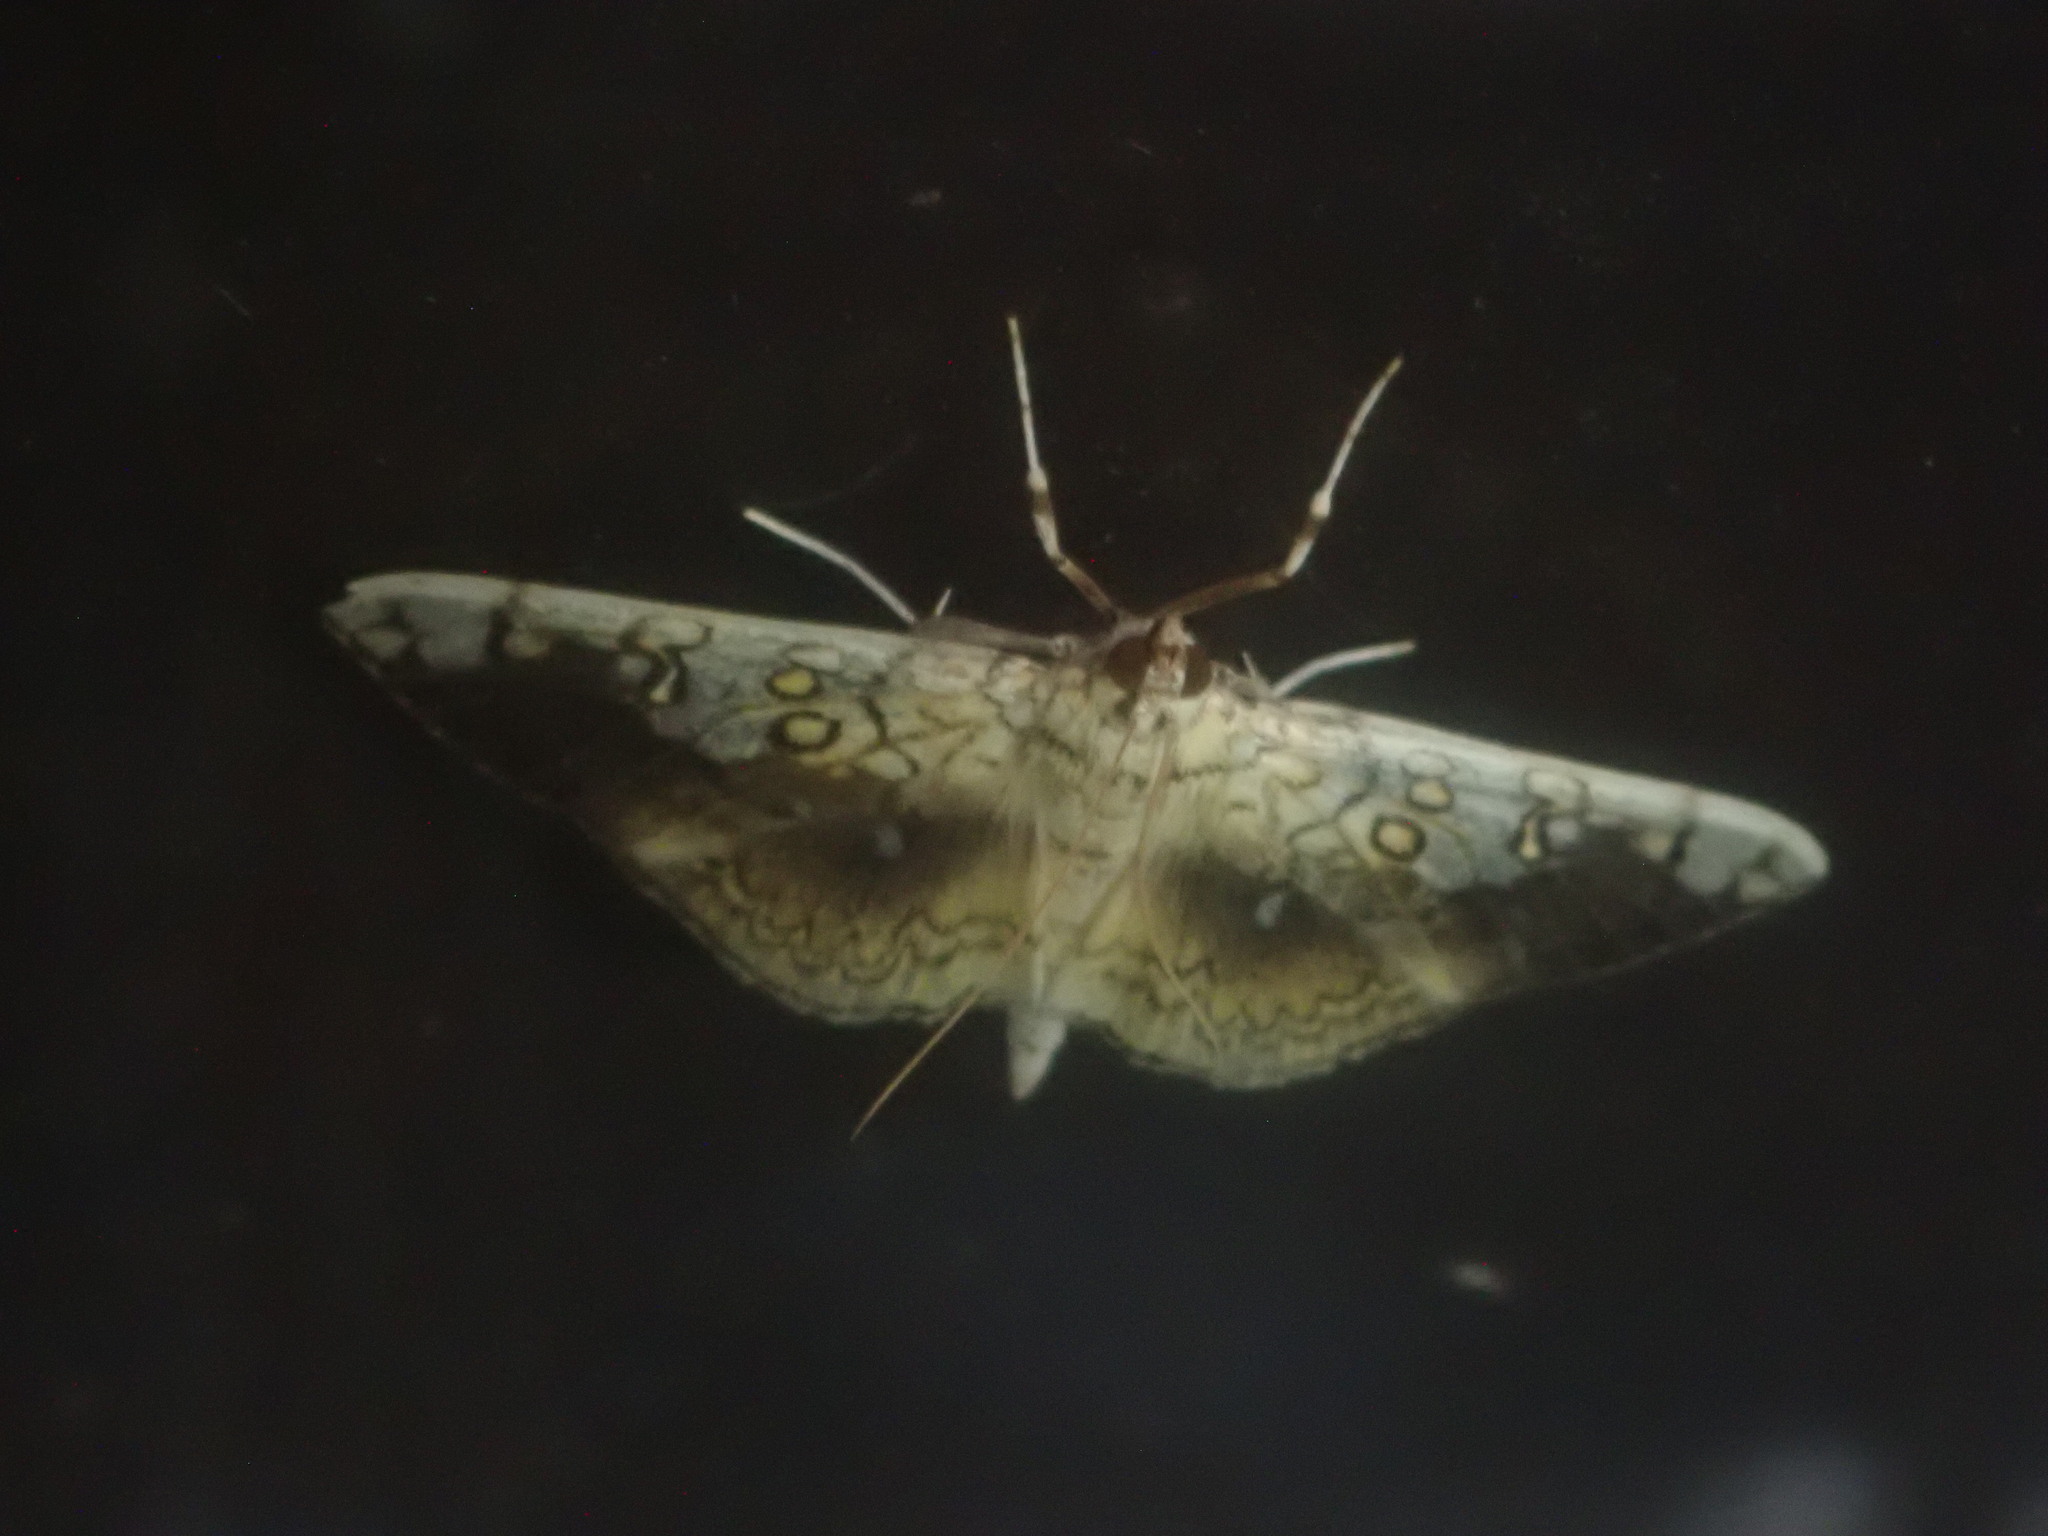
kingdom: Animalia
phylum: Arthropoda
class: Insecta
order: Lepidoptera
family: Crambidae
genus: Pantographa
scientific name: Pantographa limata
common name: Basswood leafroller moth
